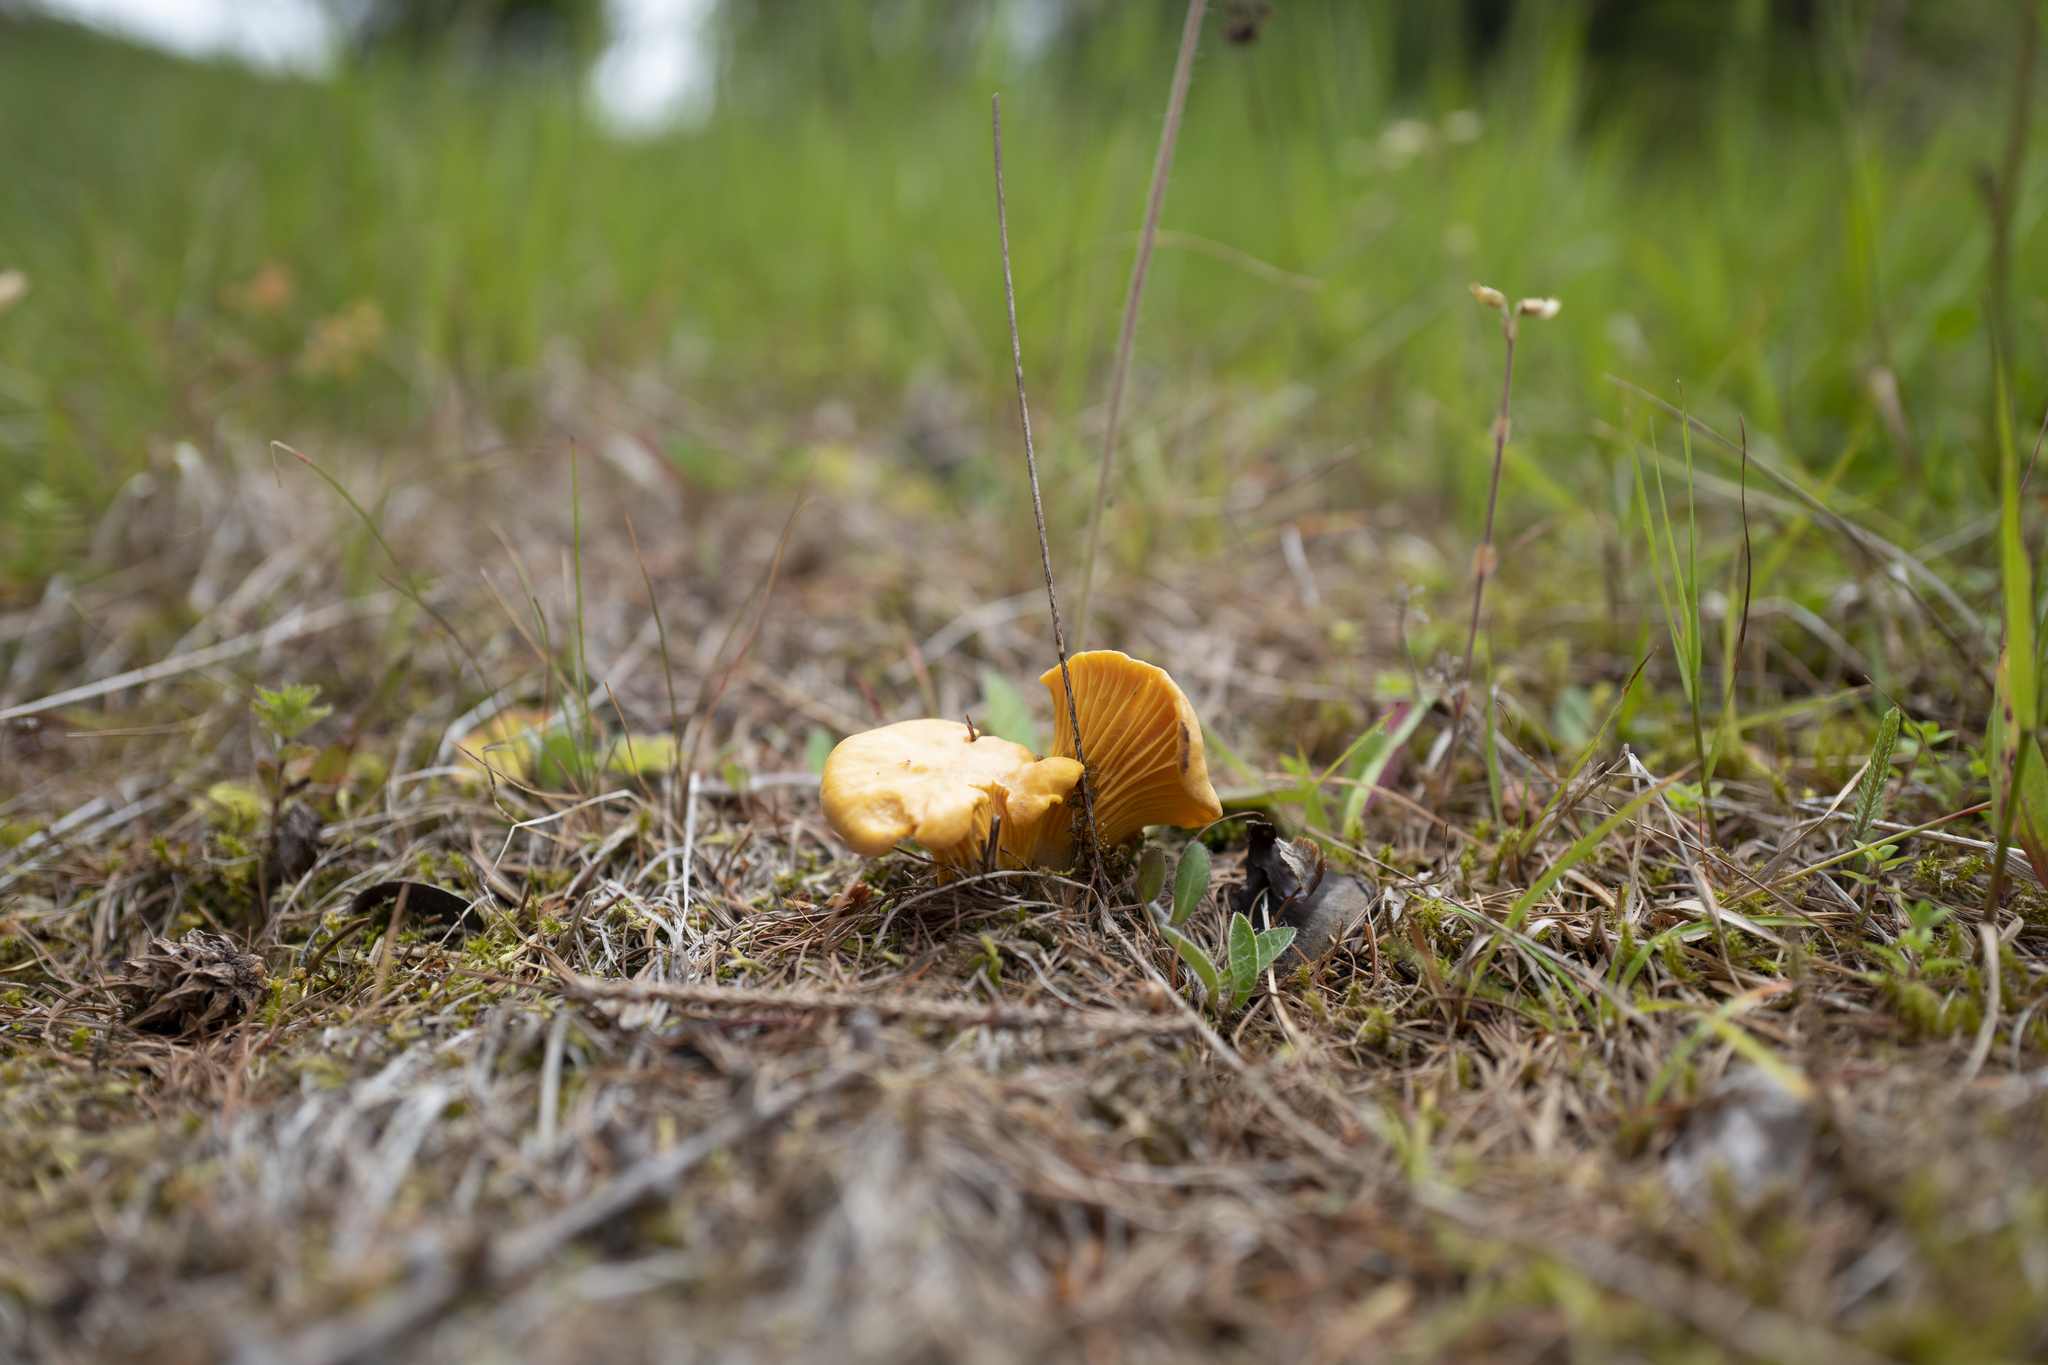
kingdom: Fungi
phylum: Basidiomycota
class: Agaricomycetes
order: Cantharellales
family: Hydnaceae
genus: Cantharellus
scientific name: Cantharellus cibarius
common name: Chanterelle
